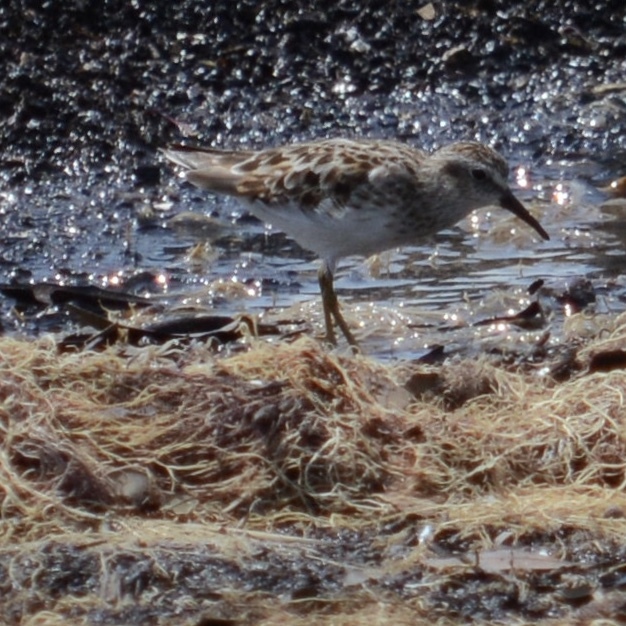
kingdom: Animalia
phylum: Chordata
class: Aves
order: Charadriiformes
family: Scolopacidae
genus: Calidris
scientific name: Calidris minutilla
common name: Least sandpiper
